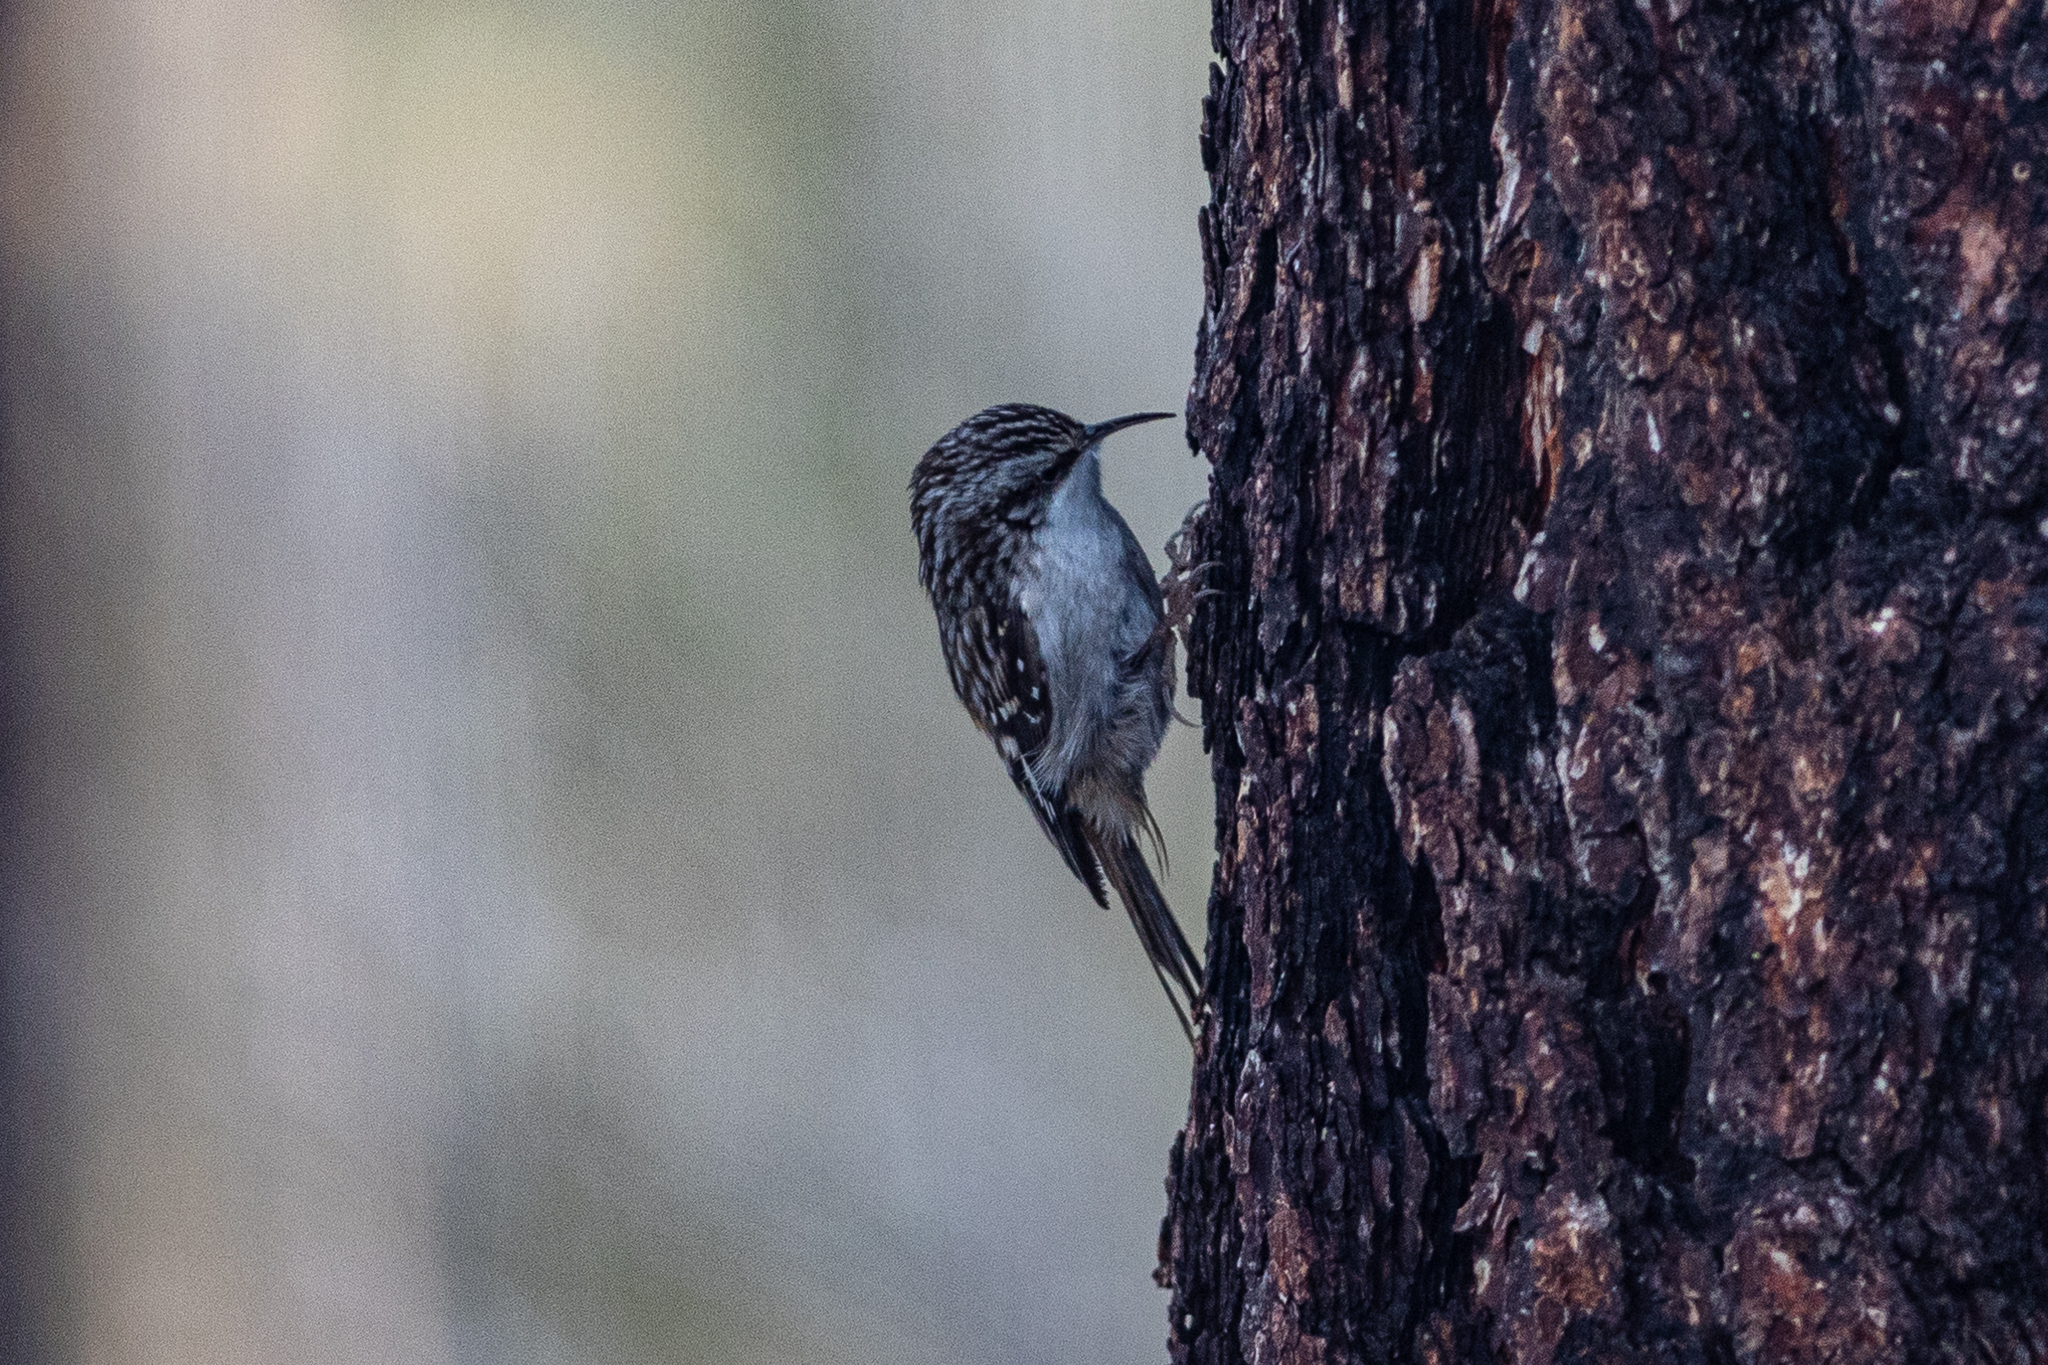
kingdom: Animalia
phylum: Chordata
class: Aves
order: Passeriformes
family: Certhiidae
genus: Certhia
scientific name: Certhia americana
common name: Brown creeper
